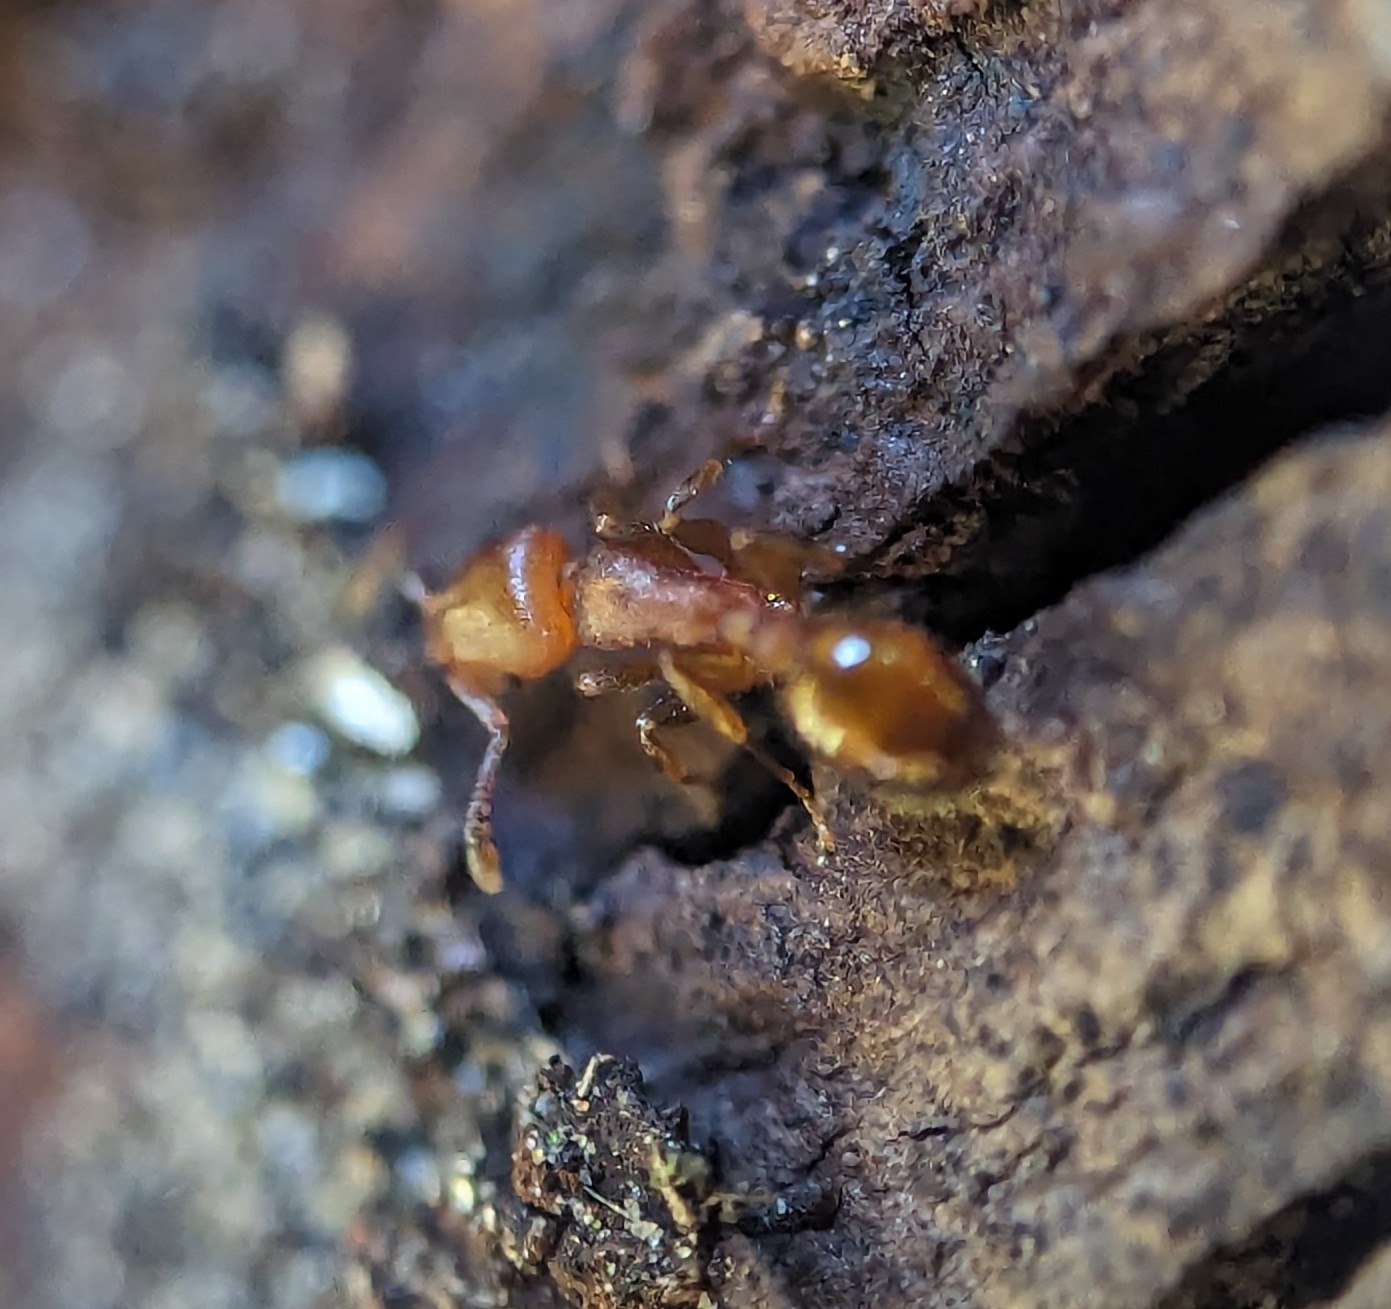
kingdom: Animalia
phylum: Arthropoda
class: Insecta
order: Hymenoptera
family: Formicidae
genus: Leptothorax
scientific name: Leptothorax schaumii
